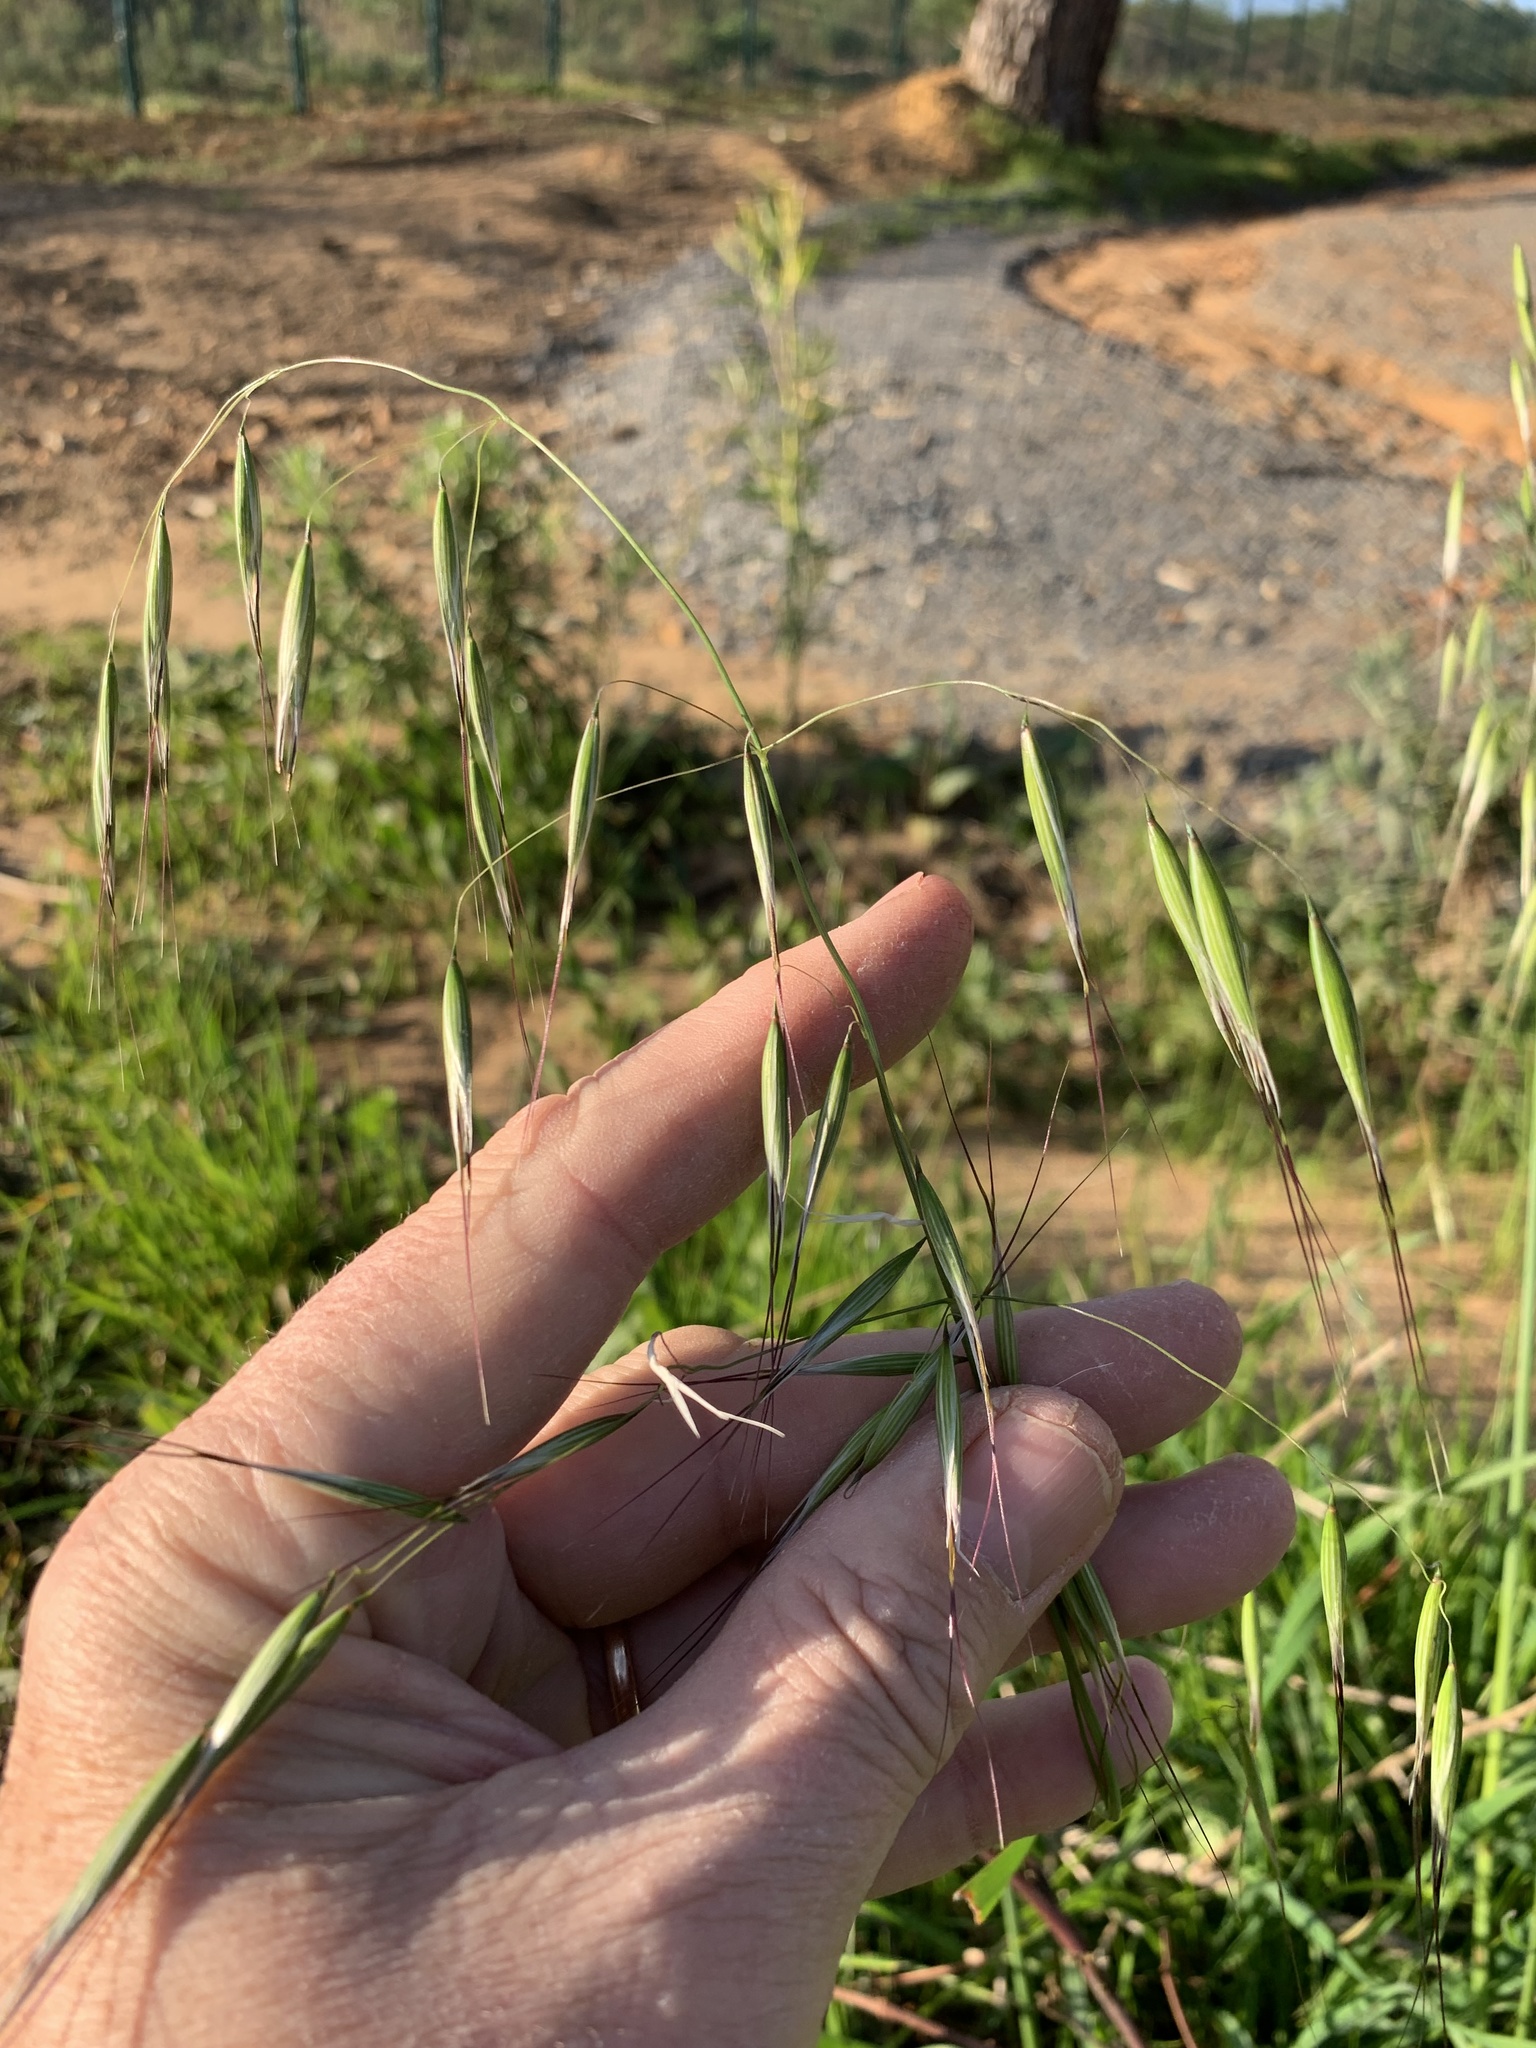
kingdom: Plantae
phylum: Tracheophyta
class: Liliopsida
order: Poales
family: Poaceae
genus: Avena
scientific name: Avena fatua
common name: Wild oat
